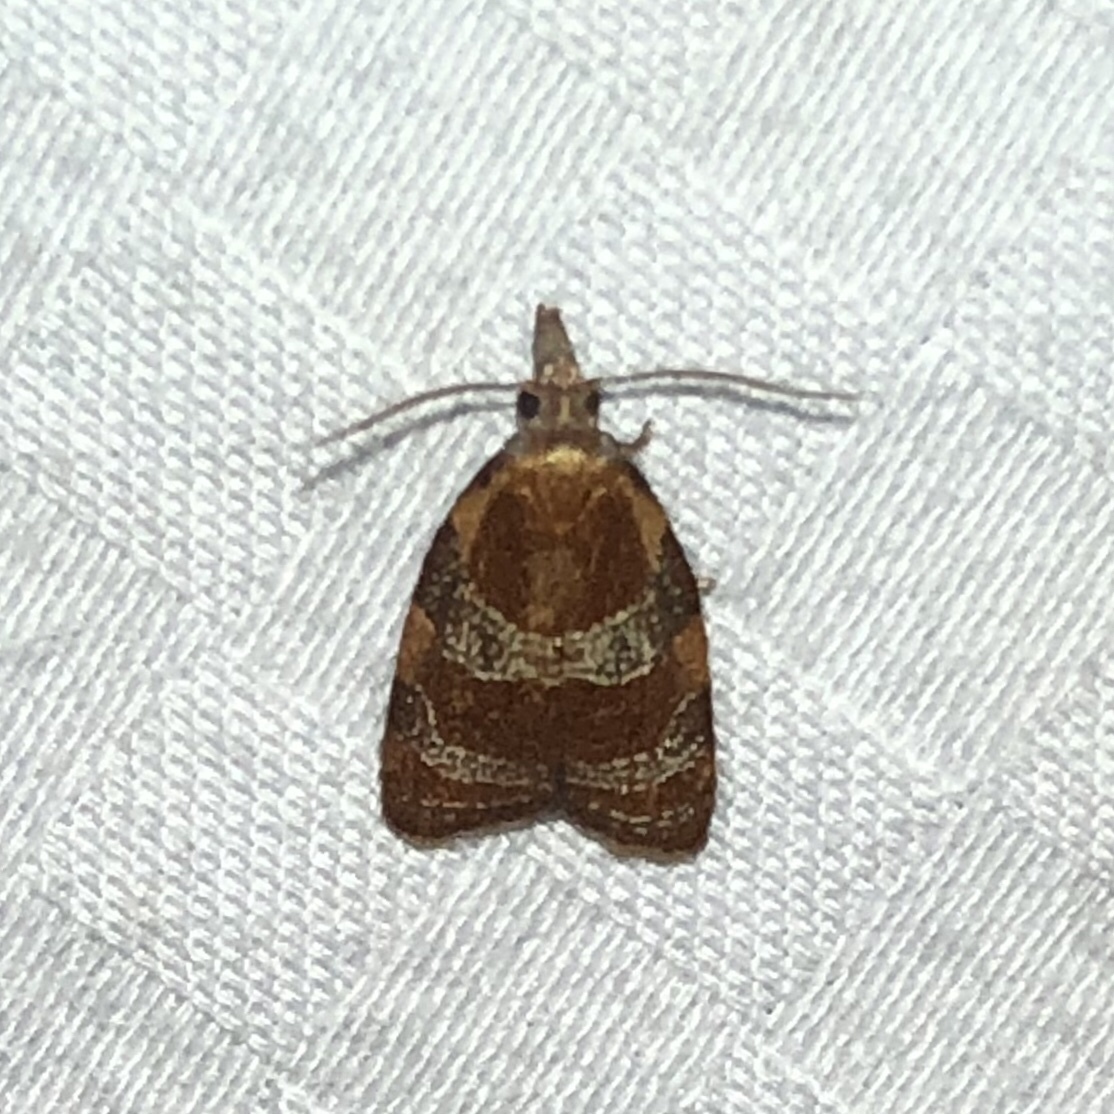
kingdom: Animalia
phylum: Arthropoda
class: Insecta
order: Lepidoptera
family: Tortricidae
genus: Cenopis
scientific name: Cenopis diluticostana
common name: Spring dead-leaf roller moth
